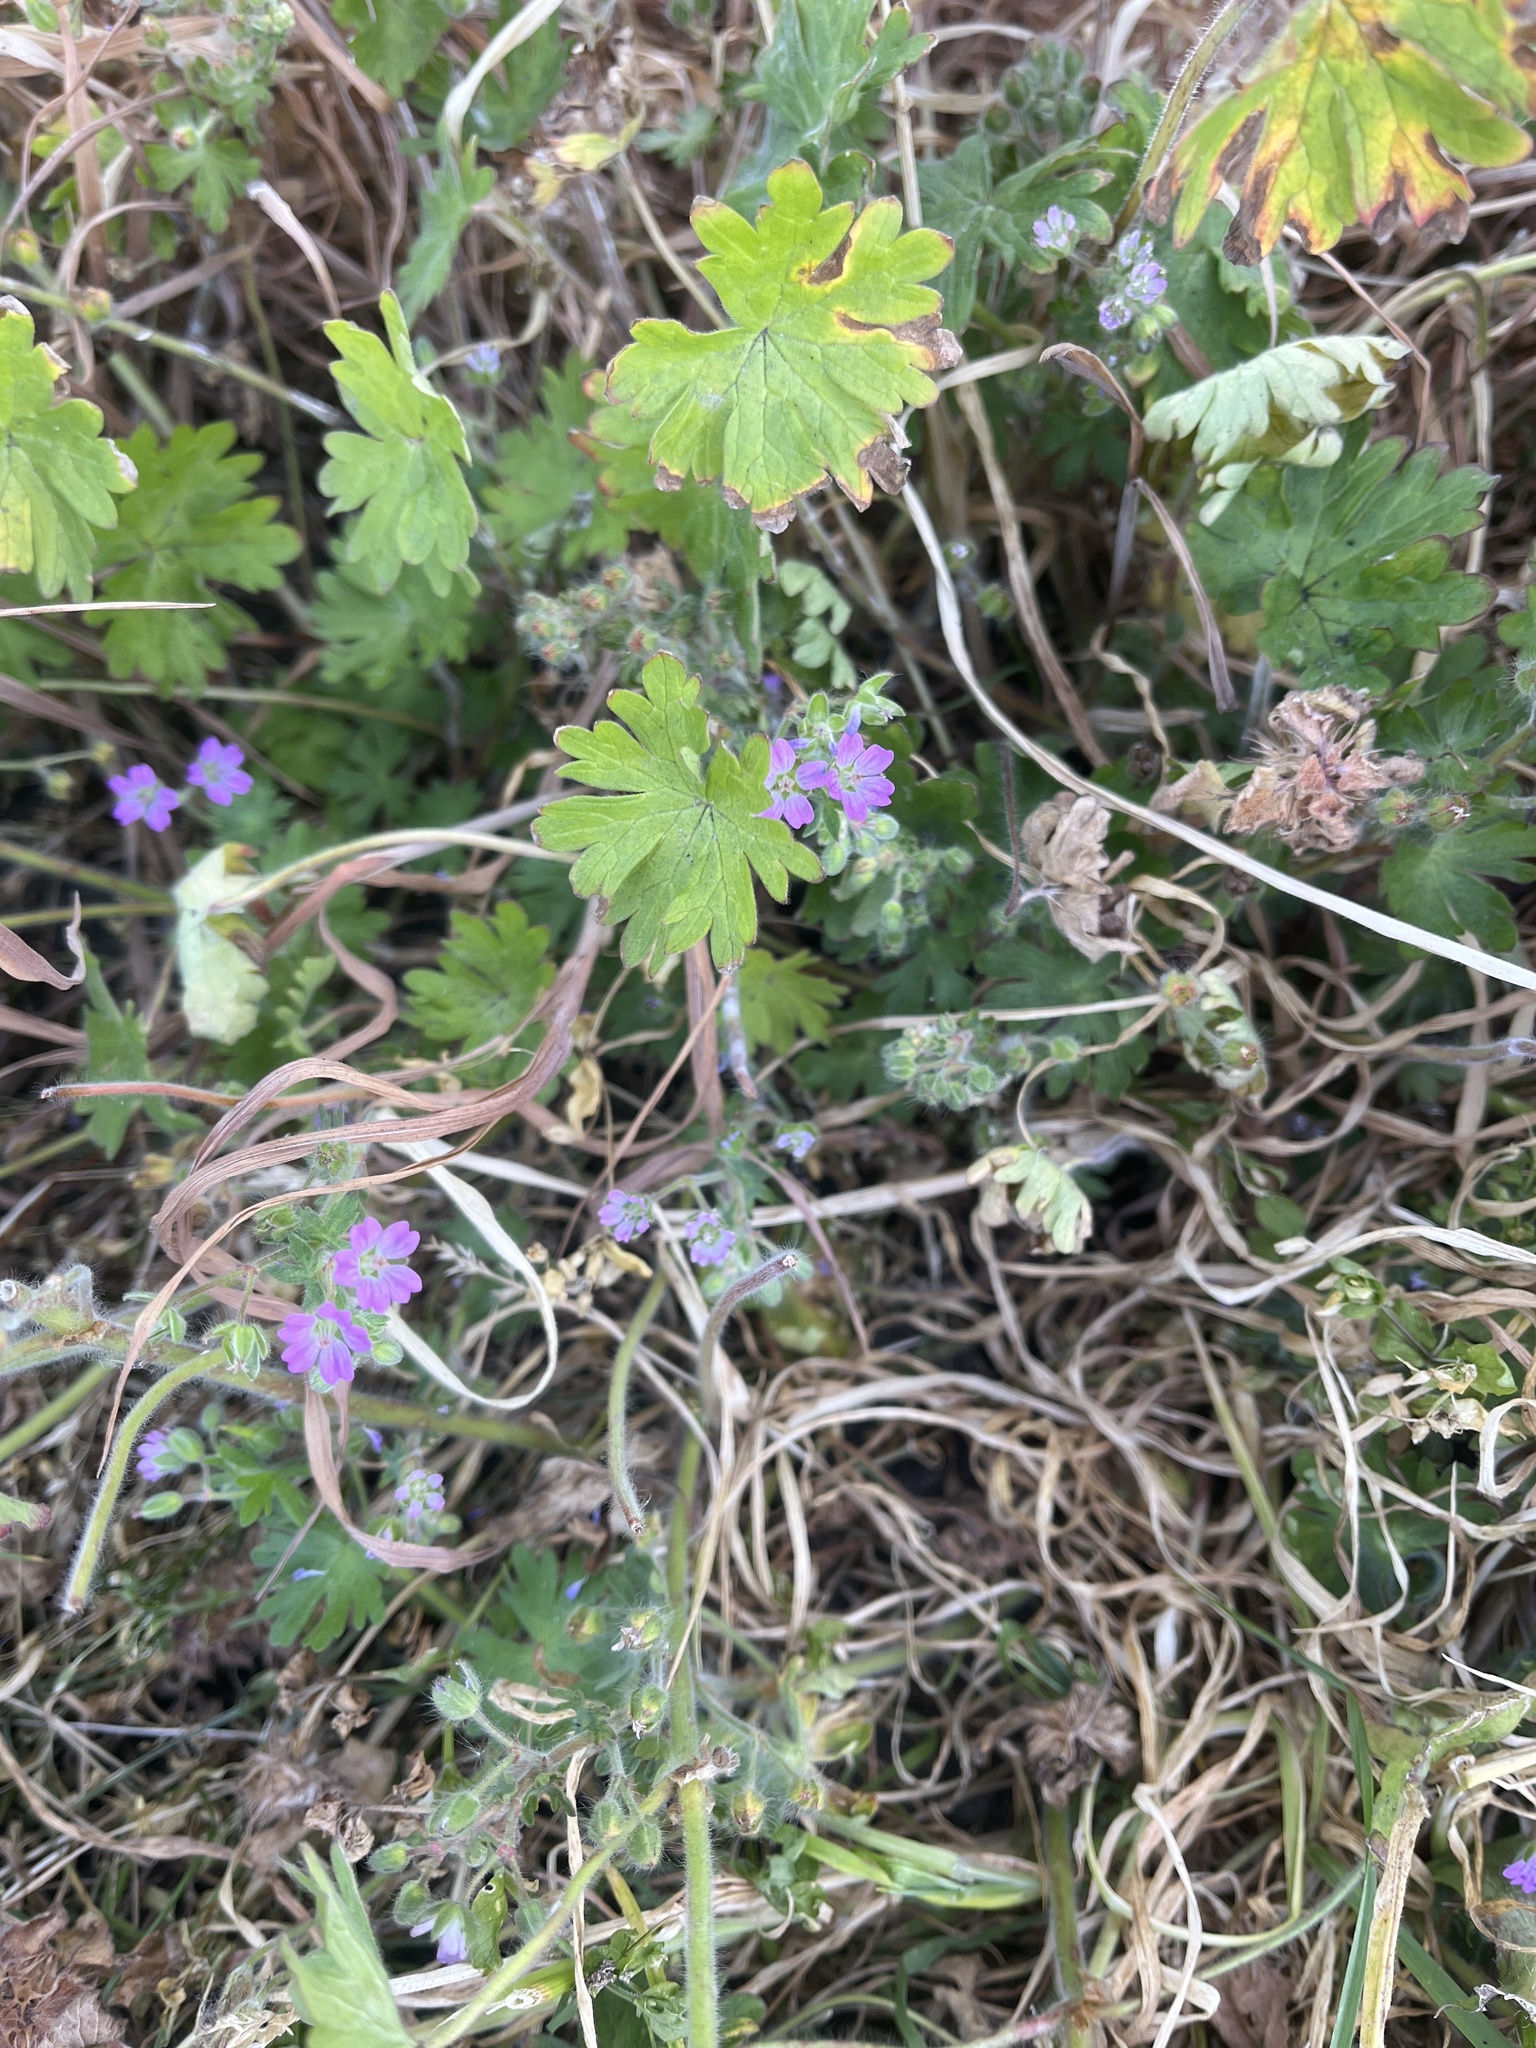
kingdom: Plantae
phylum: Tracheophyta
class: Magnoliopsida
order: Geraniales
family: Geraniaceae
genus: Geranium
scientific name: Geranium molle
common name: Dove's-foot crane's-bill
